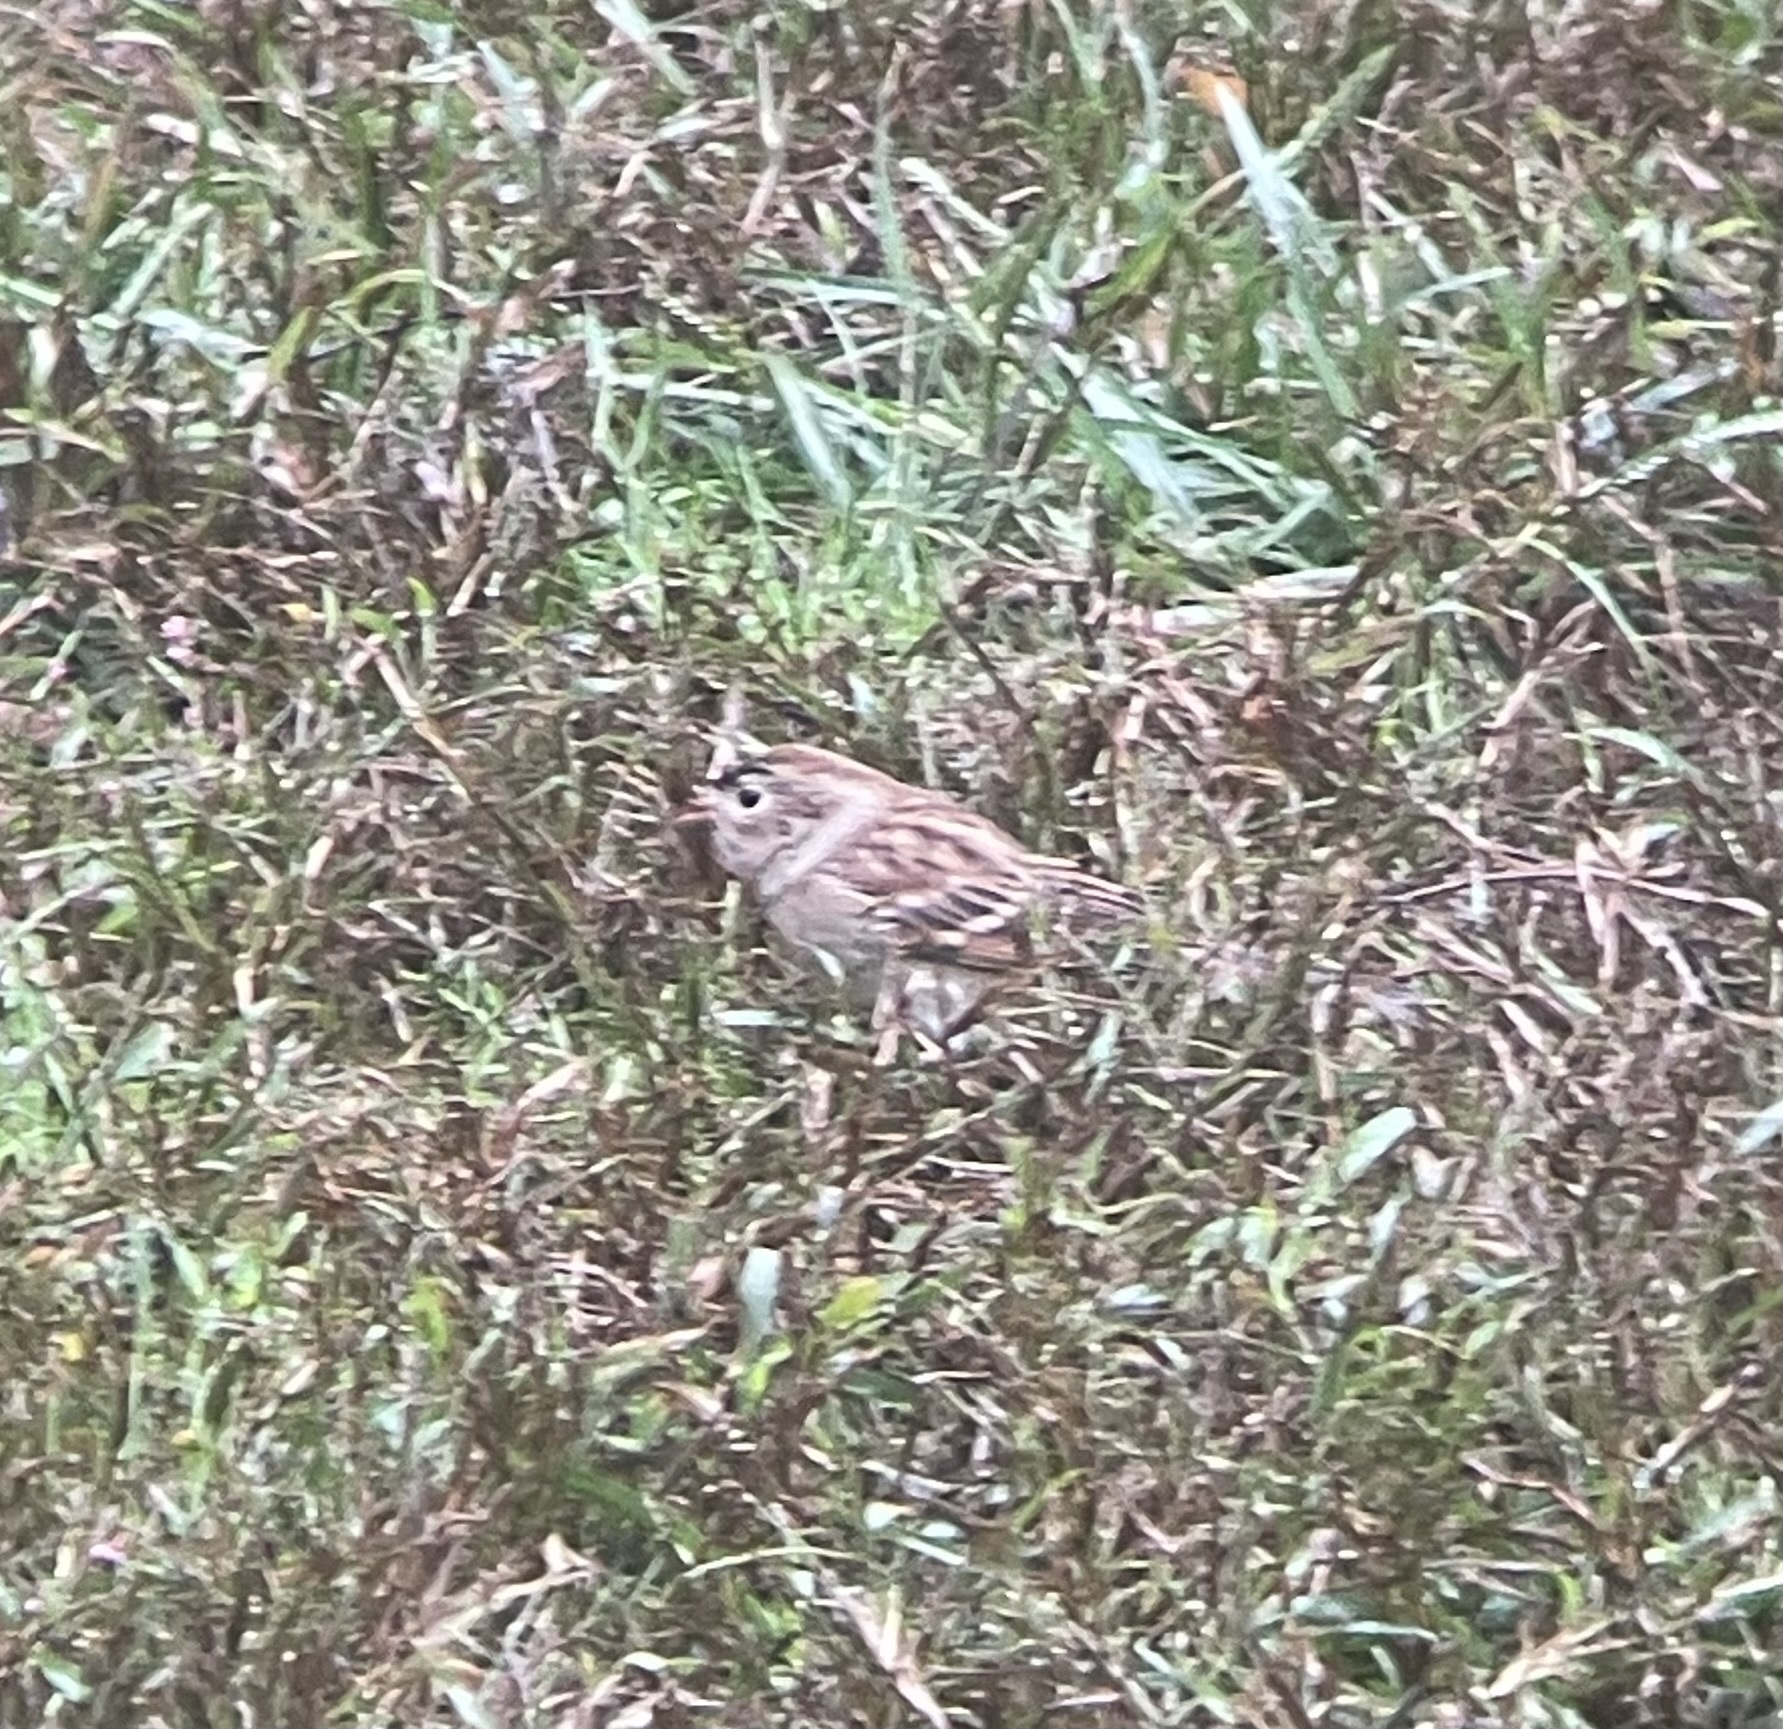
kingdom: Animalia
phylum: Chordata
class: Aves
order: Passeriformes
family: Passerellidae
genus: Spizella
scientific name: Spizella pusilla
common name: Field sparrow
